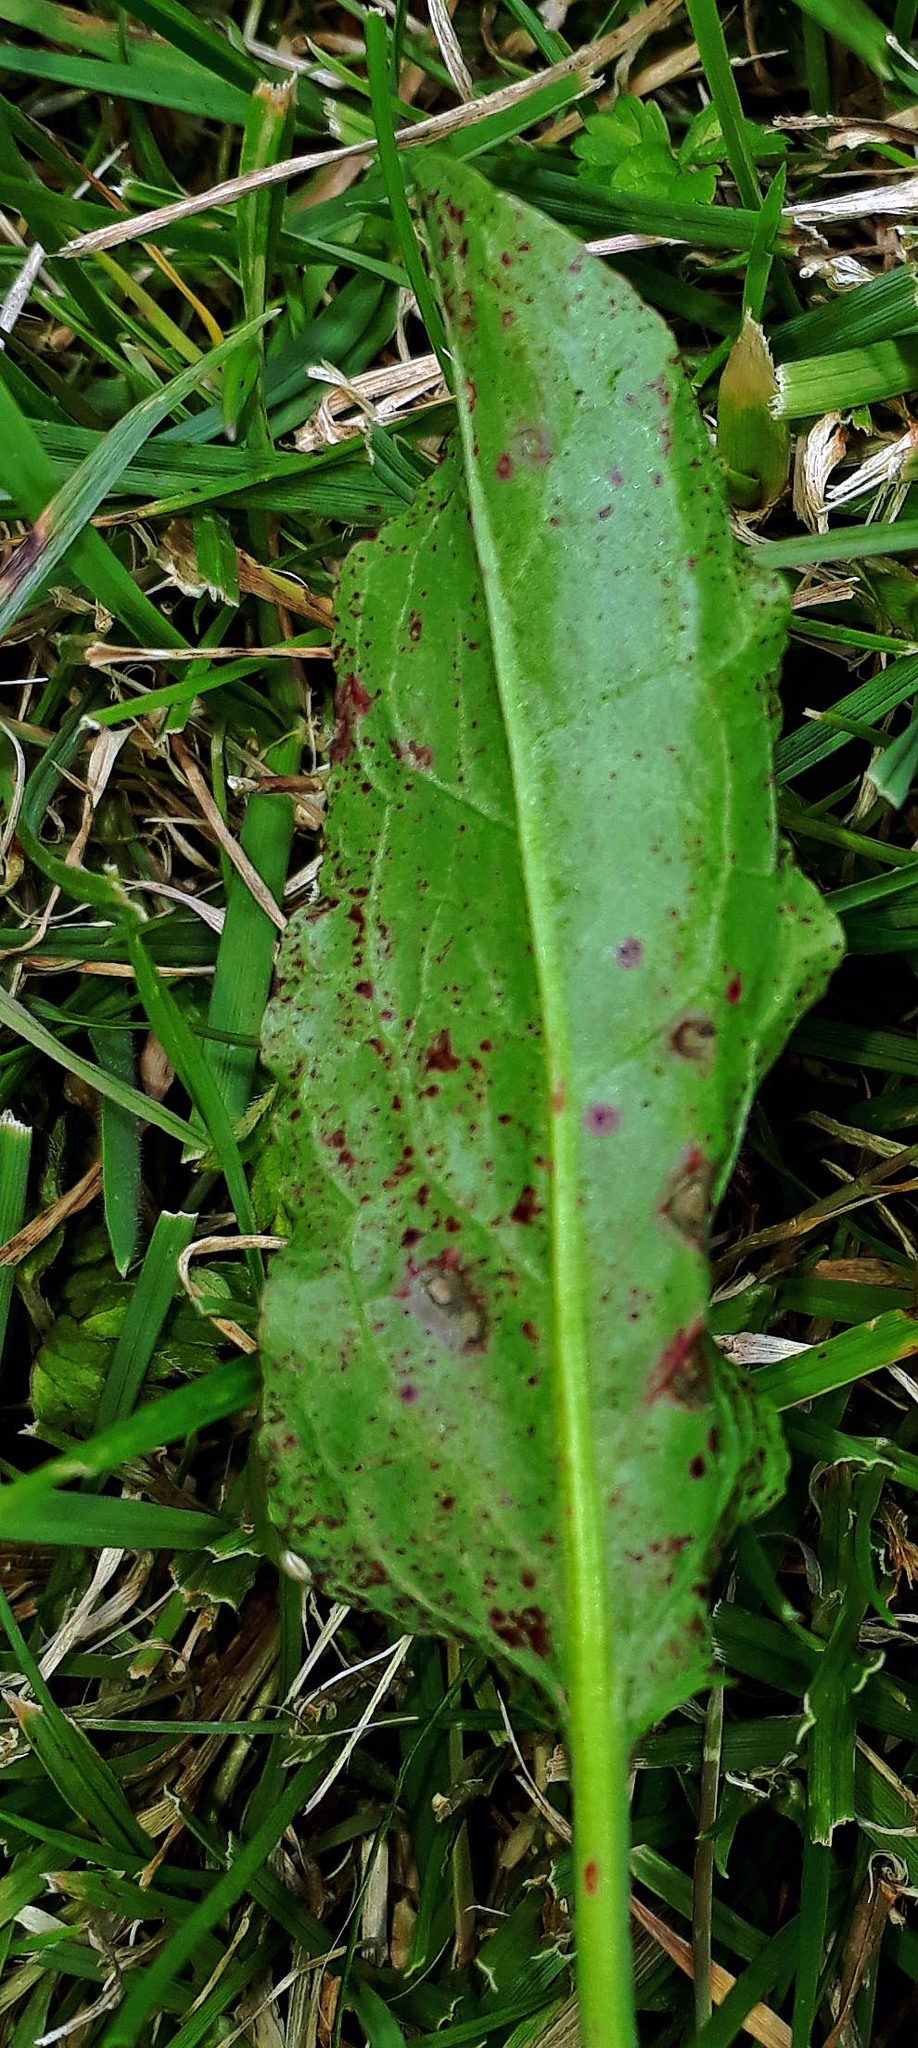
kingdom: Fungi
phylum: Ascomycota
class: Dothideomycetes
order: Mycosphaerellales
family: Mycosphaerellaceae
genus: Ramularia
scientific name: Ramularia rubella
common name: Red dock spot
